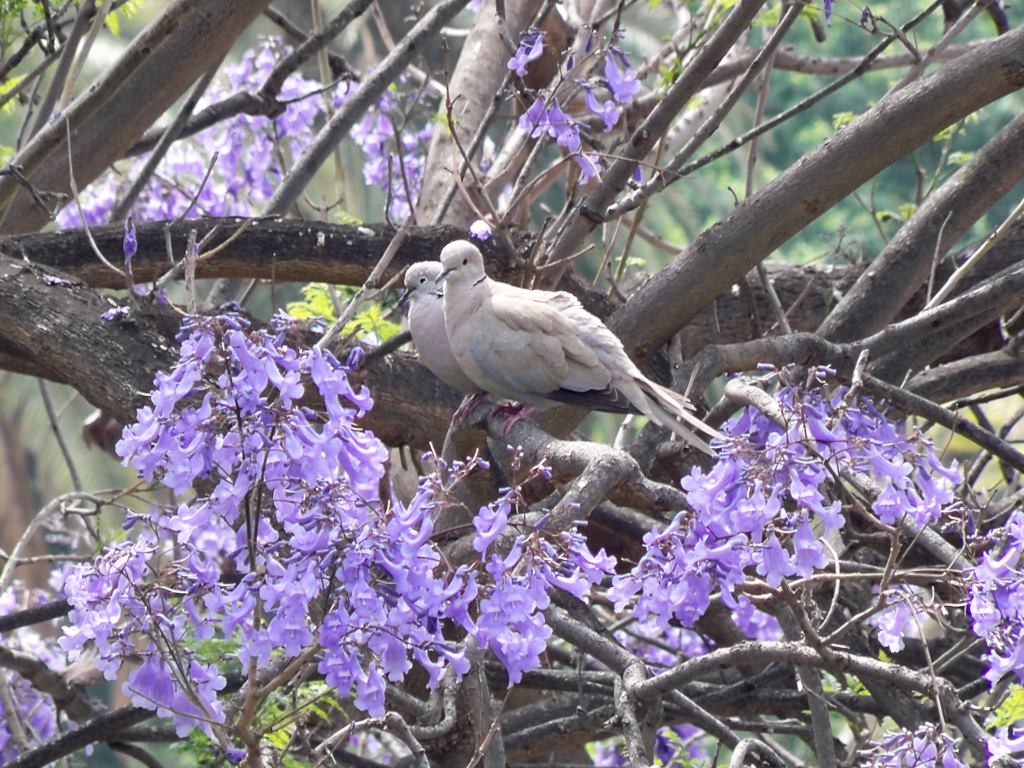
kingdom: Animalia
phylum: Chordata
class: Aves
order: Columbiformes
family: Columbidae
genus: Streptopelia
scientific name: Streptopelia decaocto
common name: Eurasian collared dove
